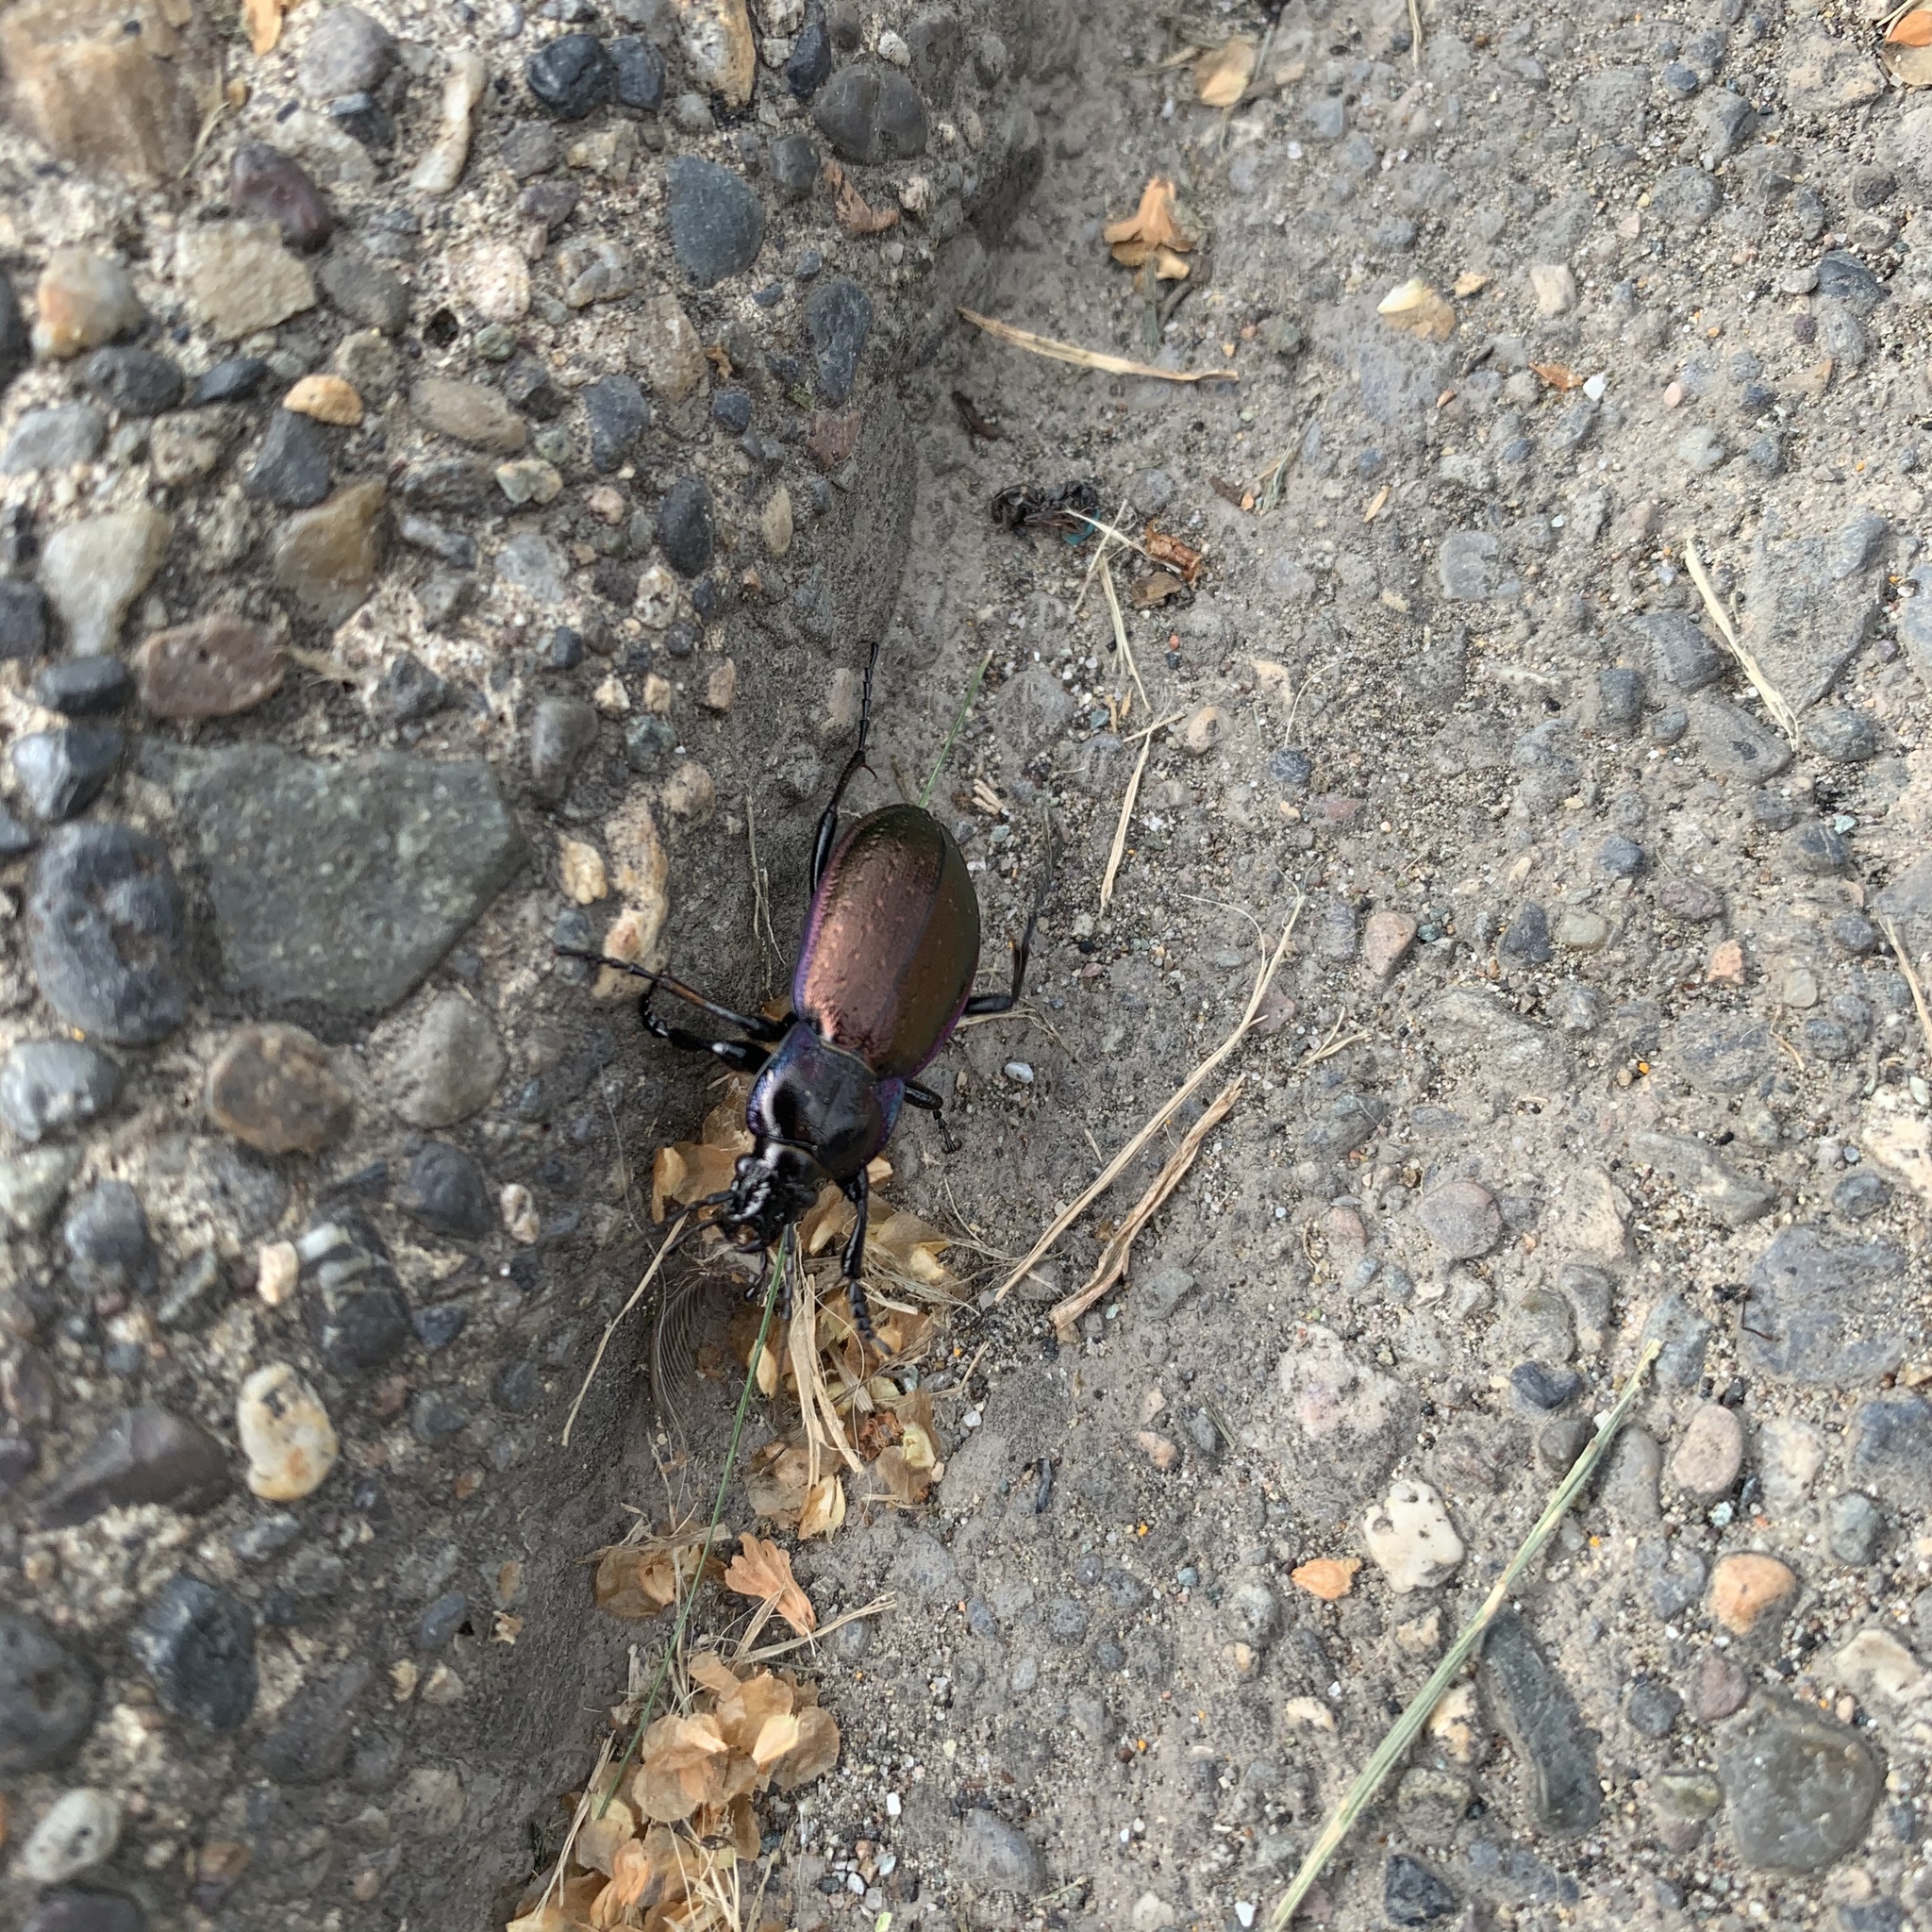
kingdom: Animalia
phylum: Arthropoda
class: Insecta
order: Coleoptera
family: Carabidae
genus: Carabus
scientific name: Carabus nemoralis
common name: European ground beetle
